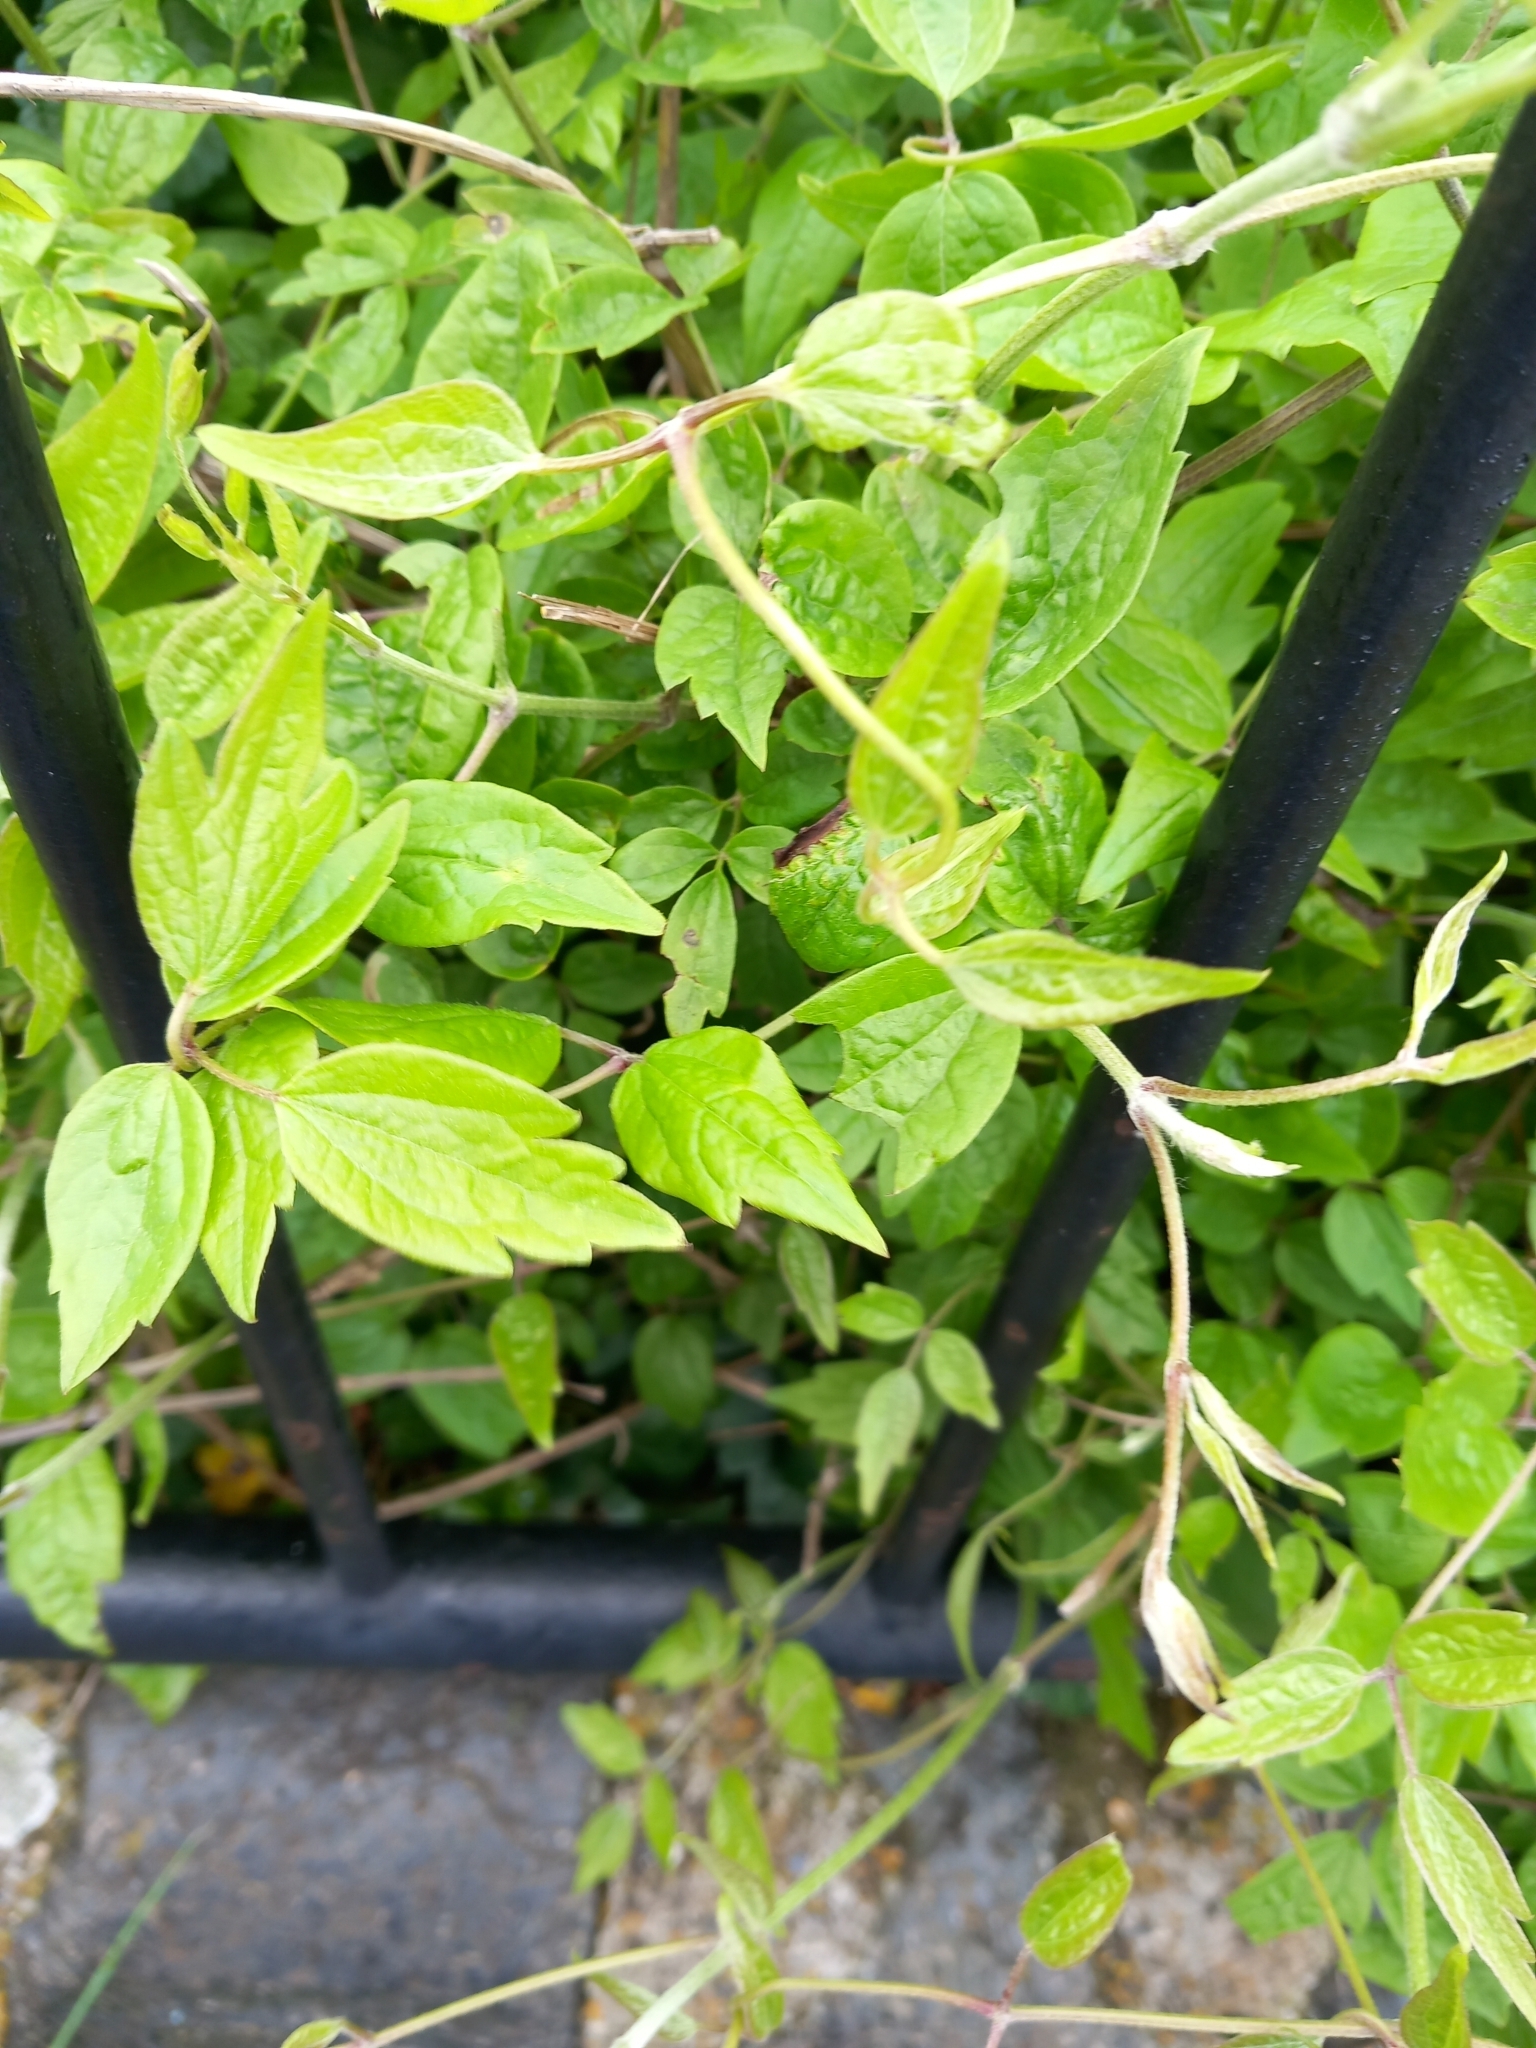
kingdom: Plantae
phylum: Tracheophyta
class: Magnoliopsida
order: Ranunculales
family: Ranunculaceae
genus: Clematis
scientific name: Clematis vitalba
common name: Evergreen clematis
